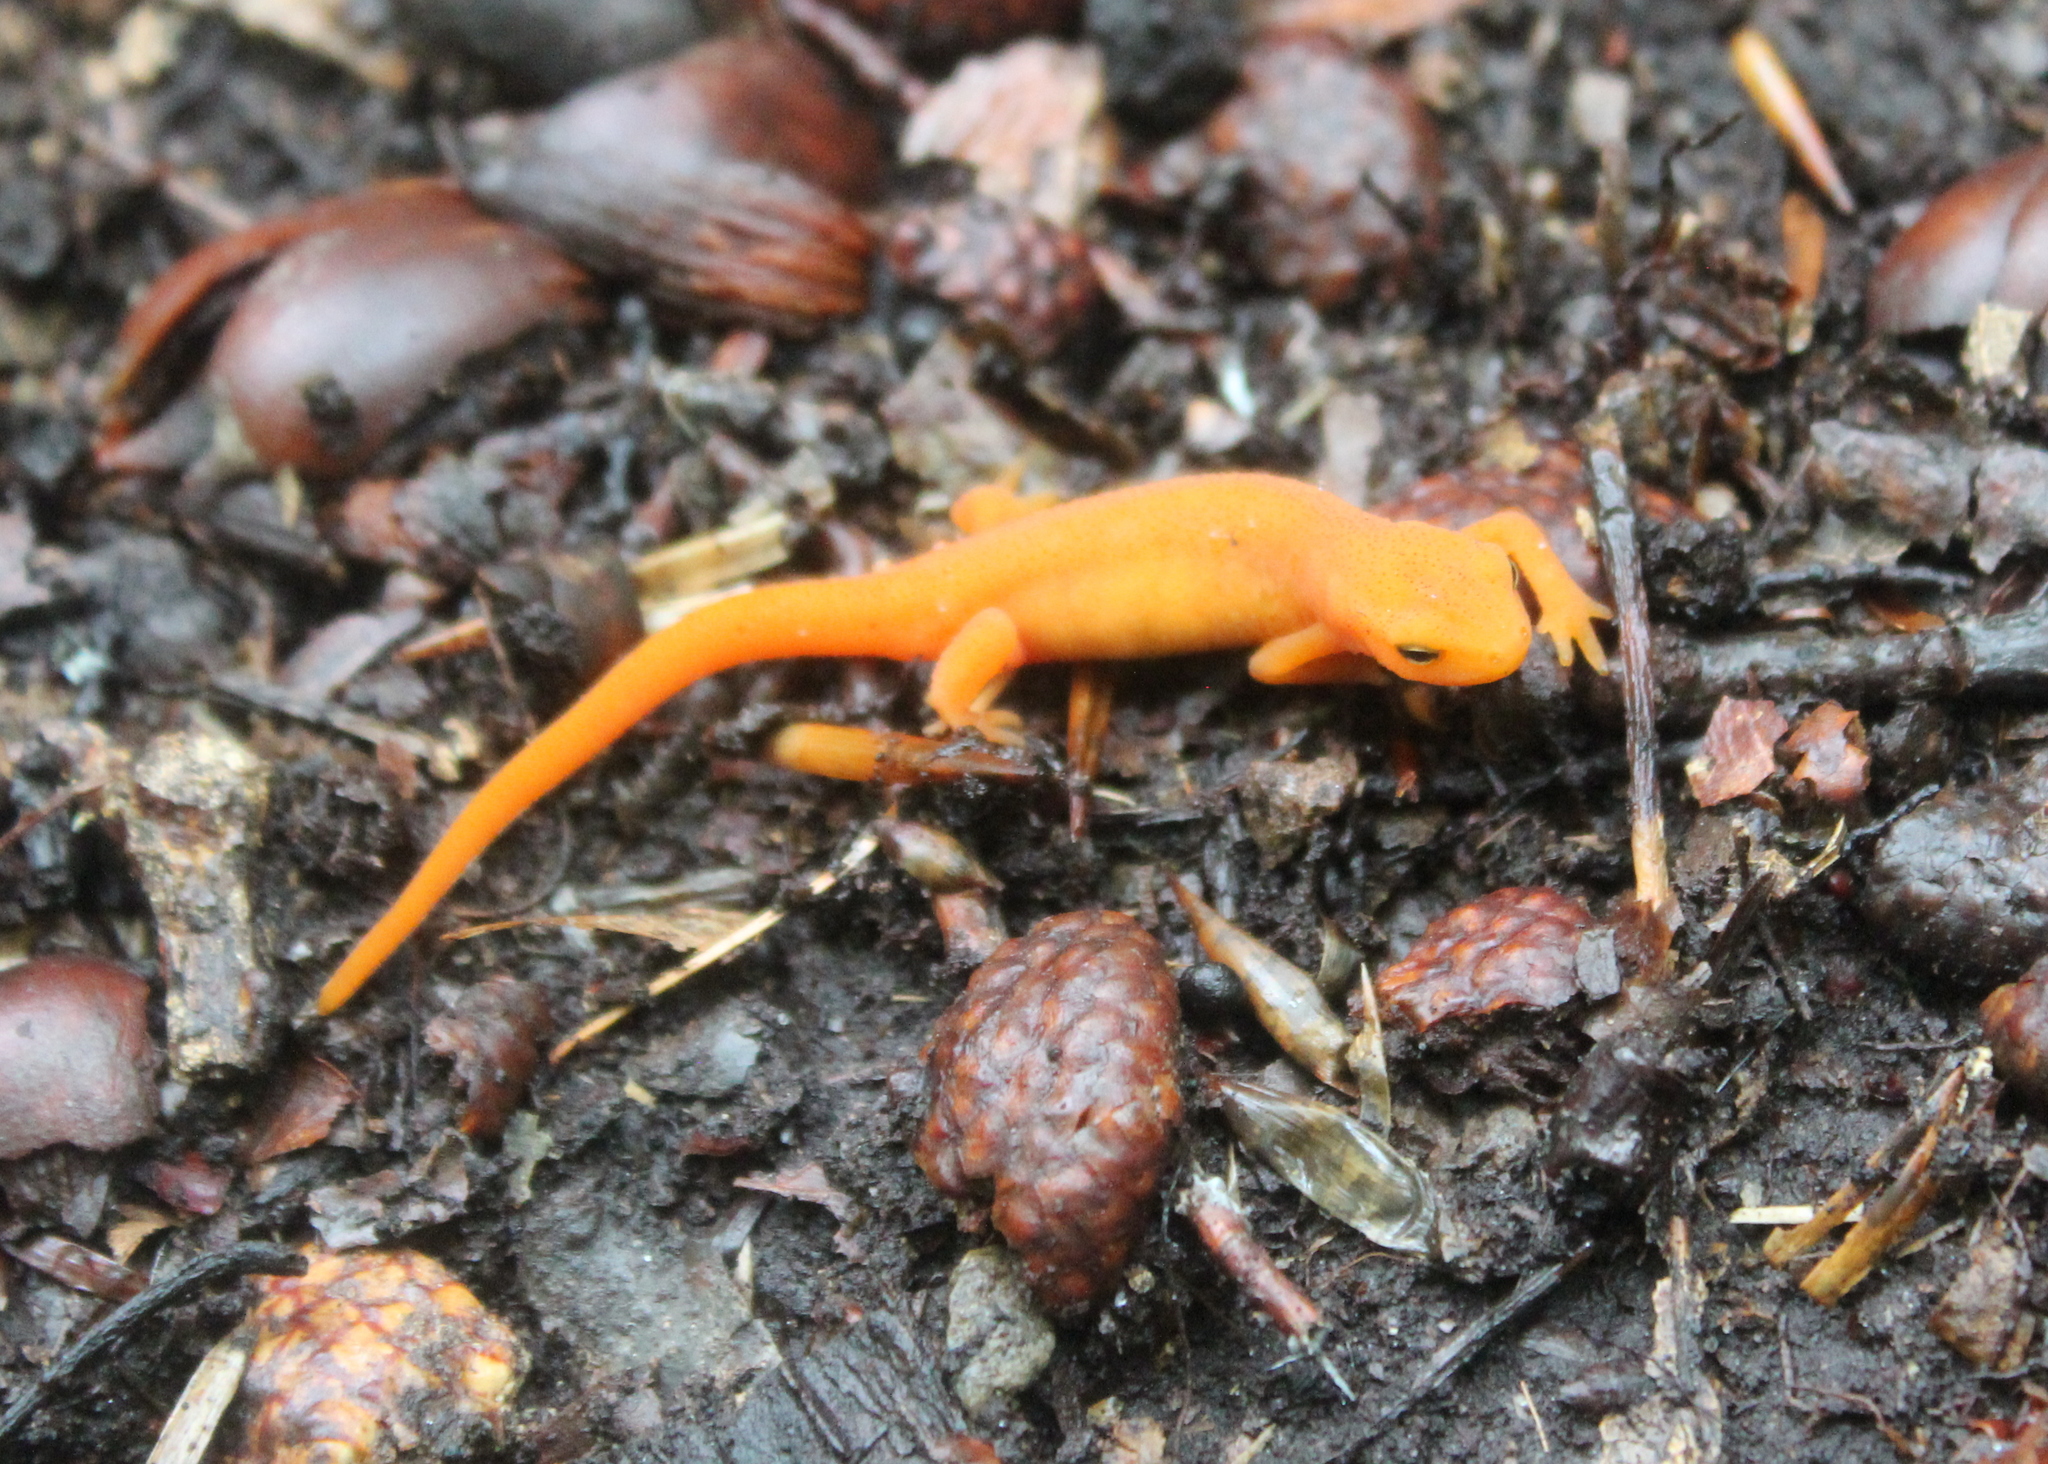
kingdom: Animalia
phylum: Chordata
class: Amphibia
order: Caudata
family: Salamandridae
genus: Notophthalmus
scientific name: Notophthalmus viridescens
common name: Eastern newt
